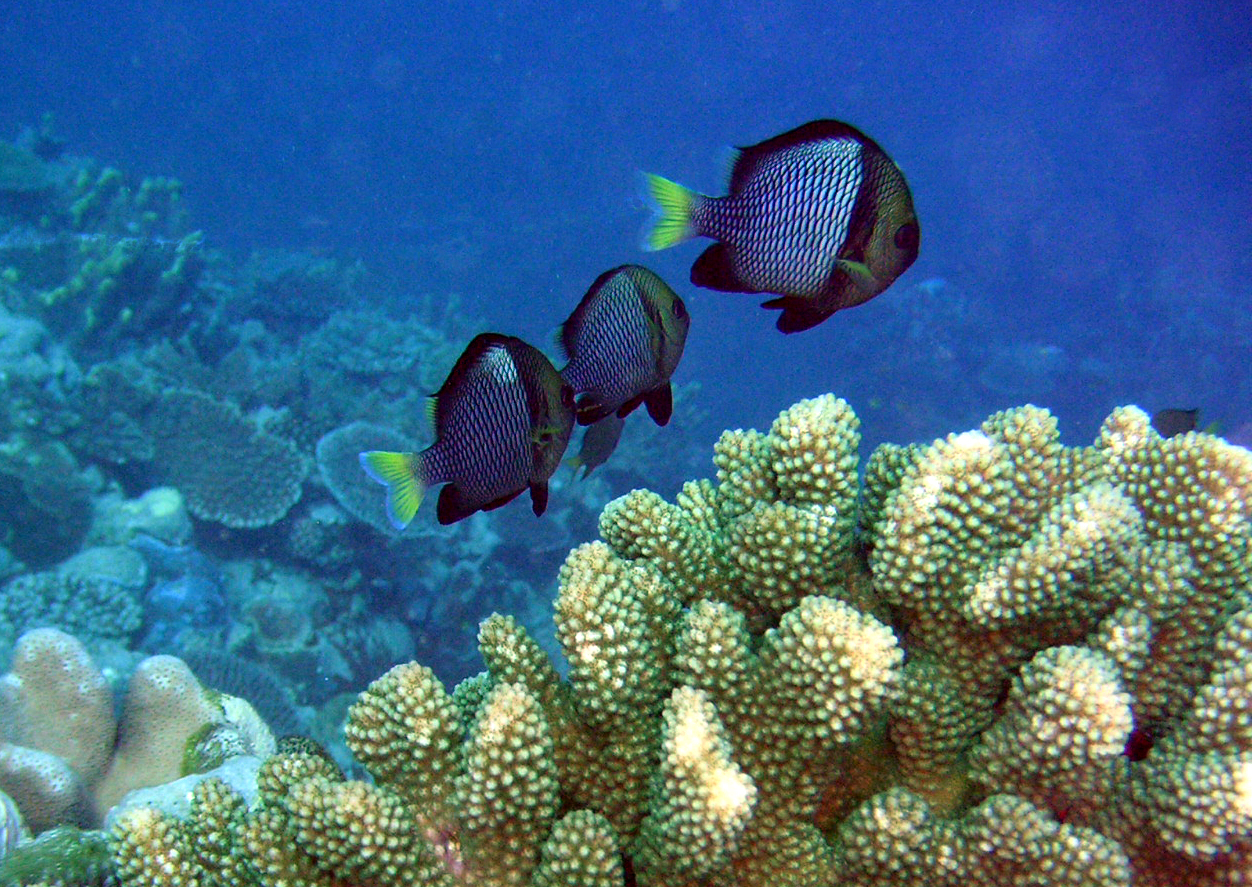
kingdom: Animalia
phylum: Chordata
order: Perciformes
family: Pomacentridae
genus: Dascyllus
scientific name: Dascyllus flavicaudus
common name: Yellow-tailed dascyllus
